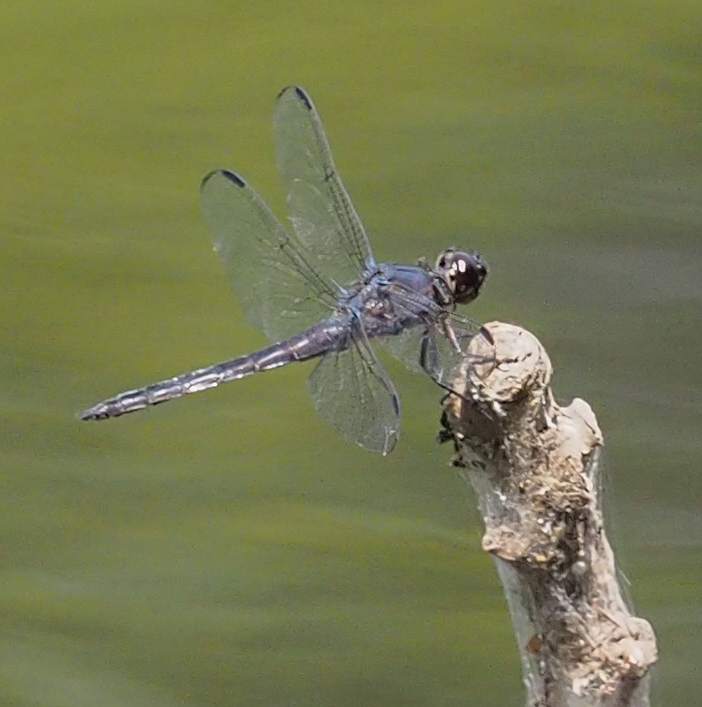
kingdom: Animalia
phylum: Arthropoda
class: Insecta
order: Odonata
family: Libellulidae
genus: Libellula
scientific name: Libellula incesta
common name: Slaty skimmer
